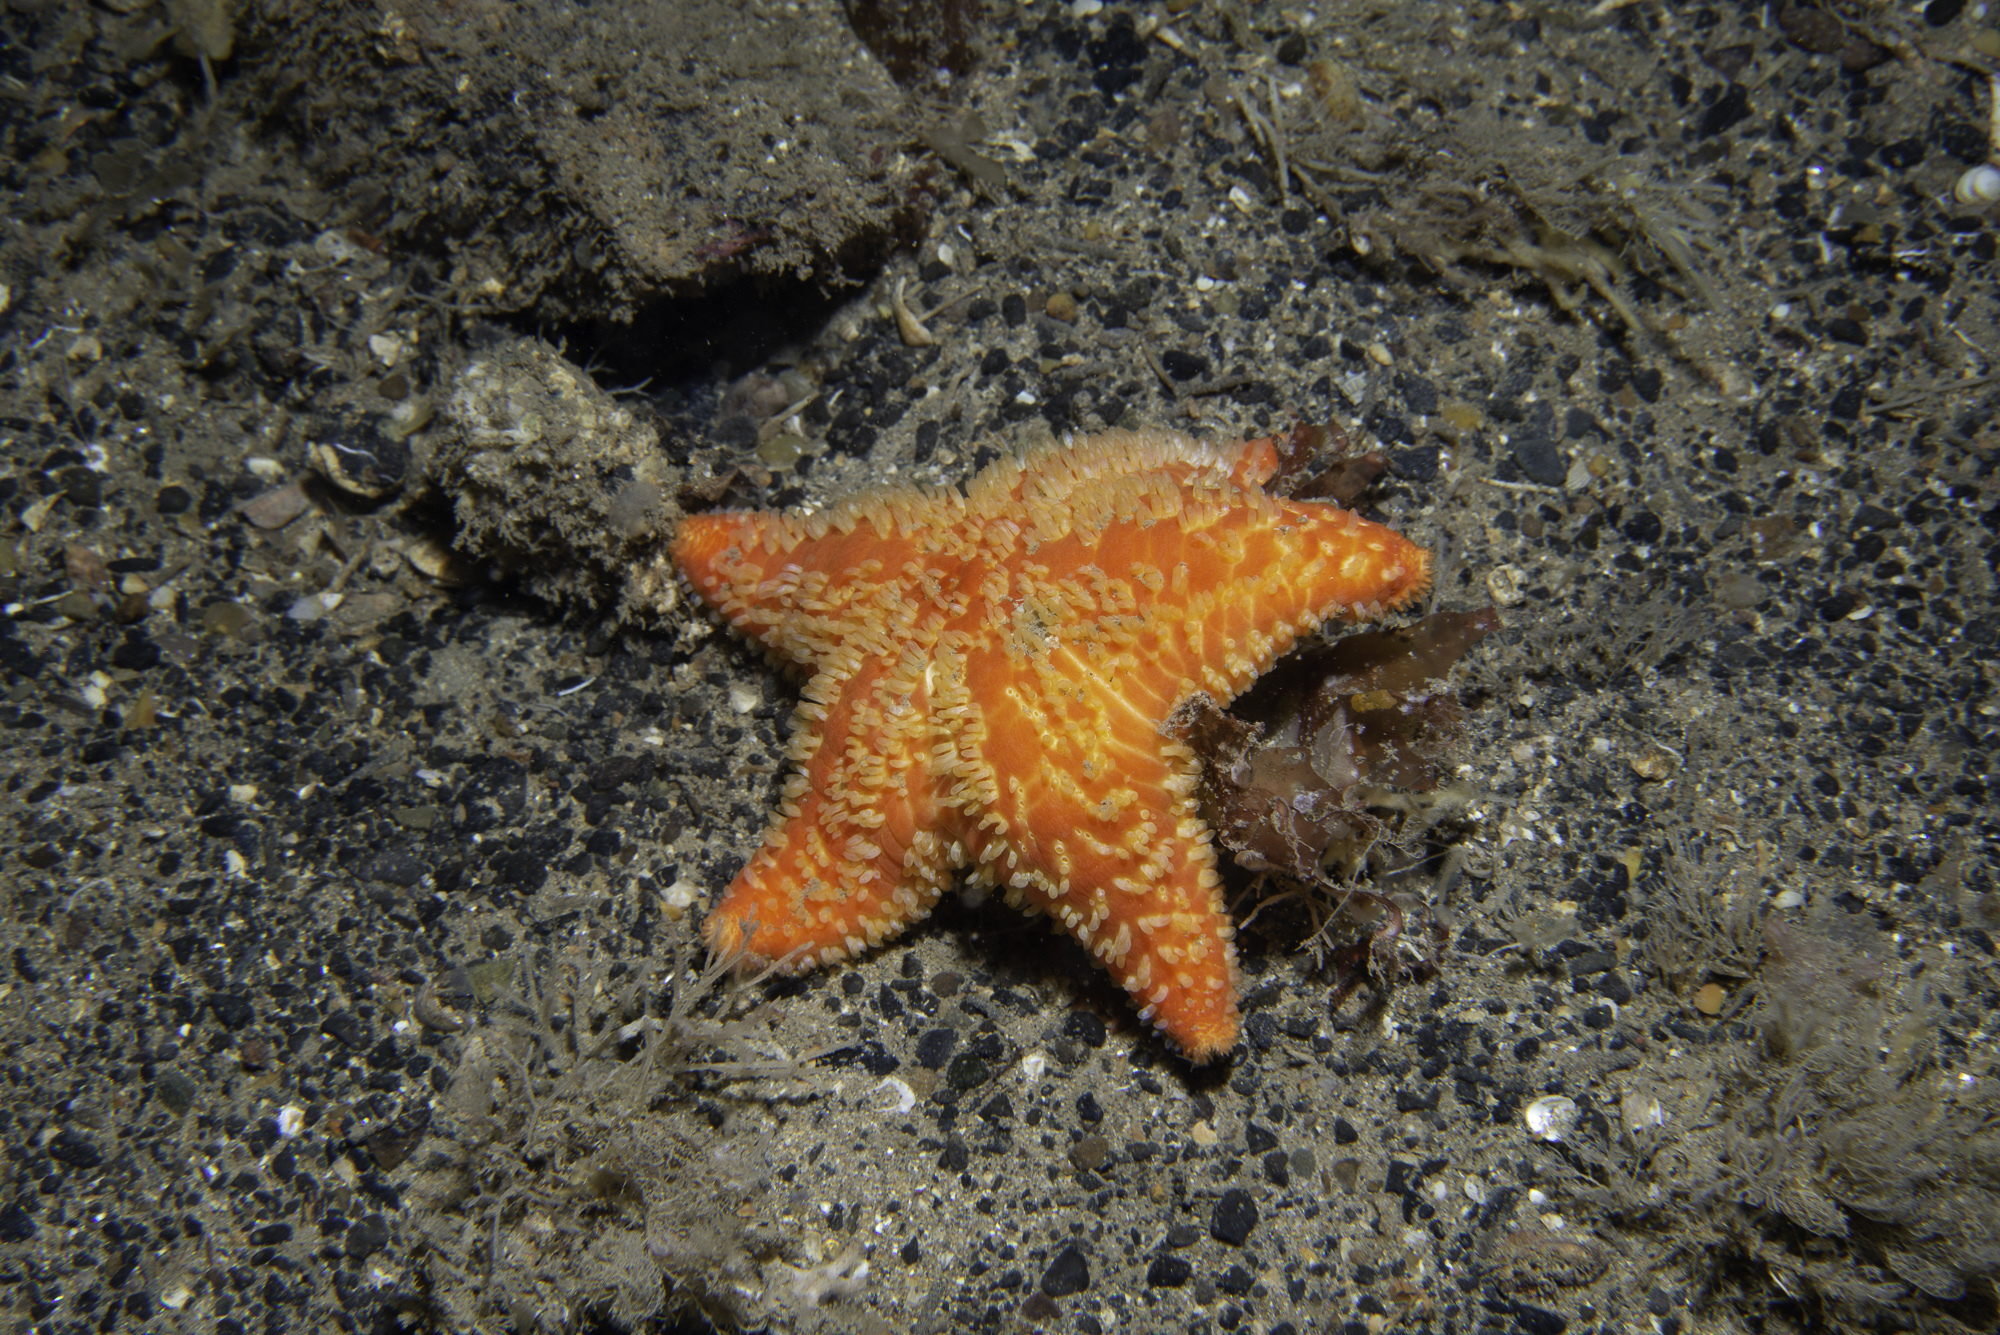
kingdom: Animalia
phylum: Echinodermata
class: Asteroidea
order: Valvatida
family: Poraniidae
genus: Porania
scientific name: Porania pulvillus
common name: Red cushion stat
